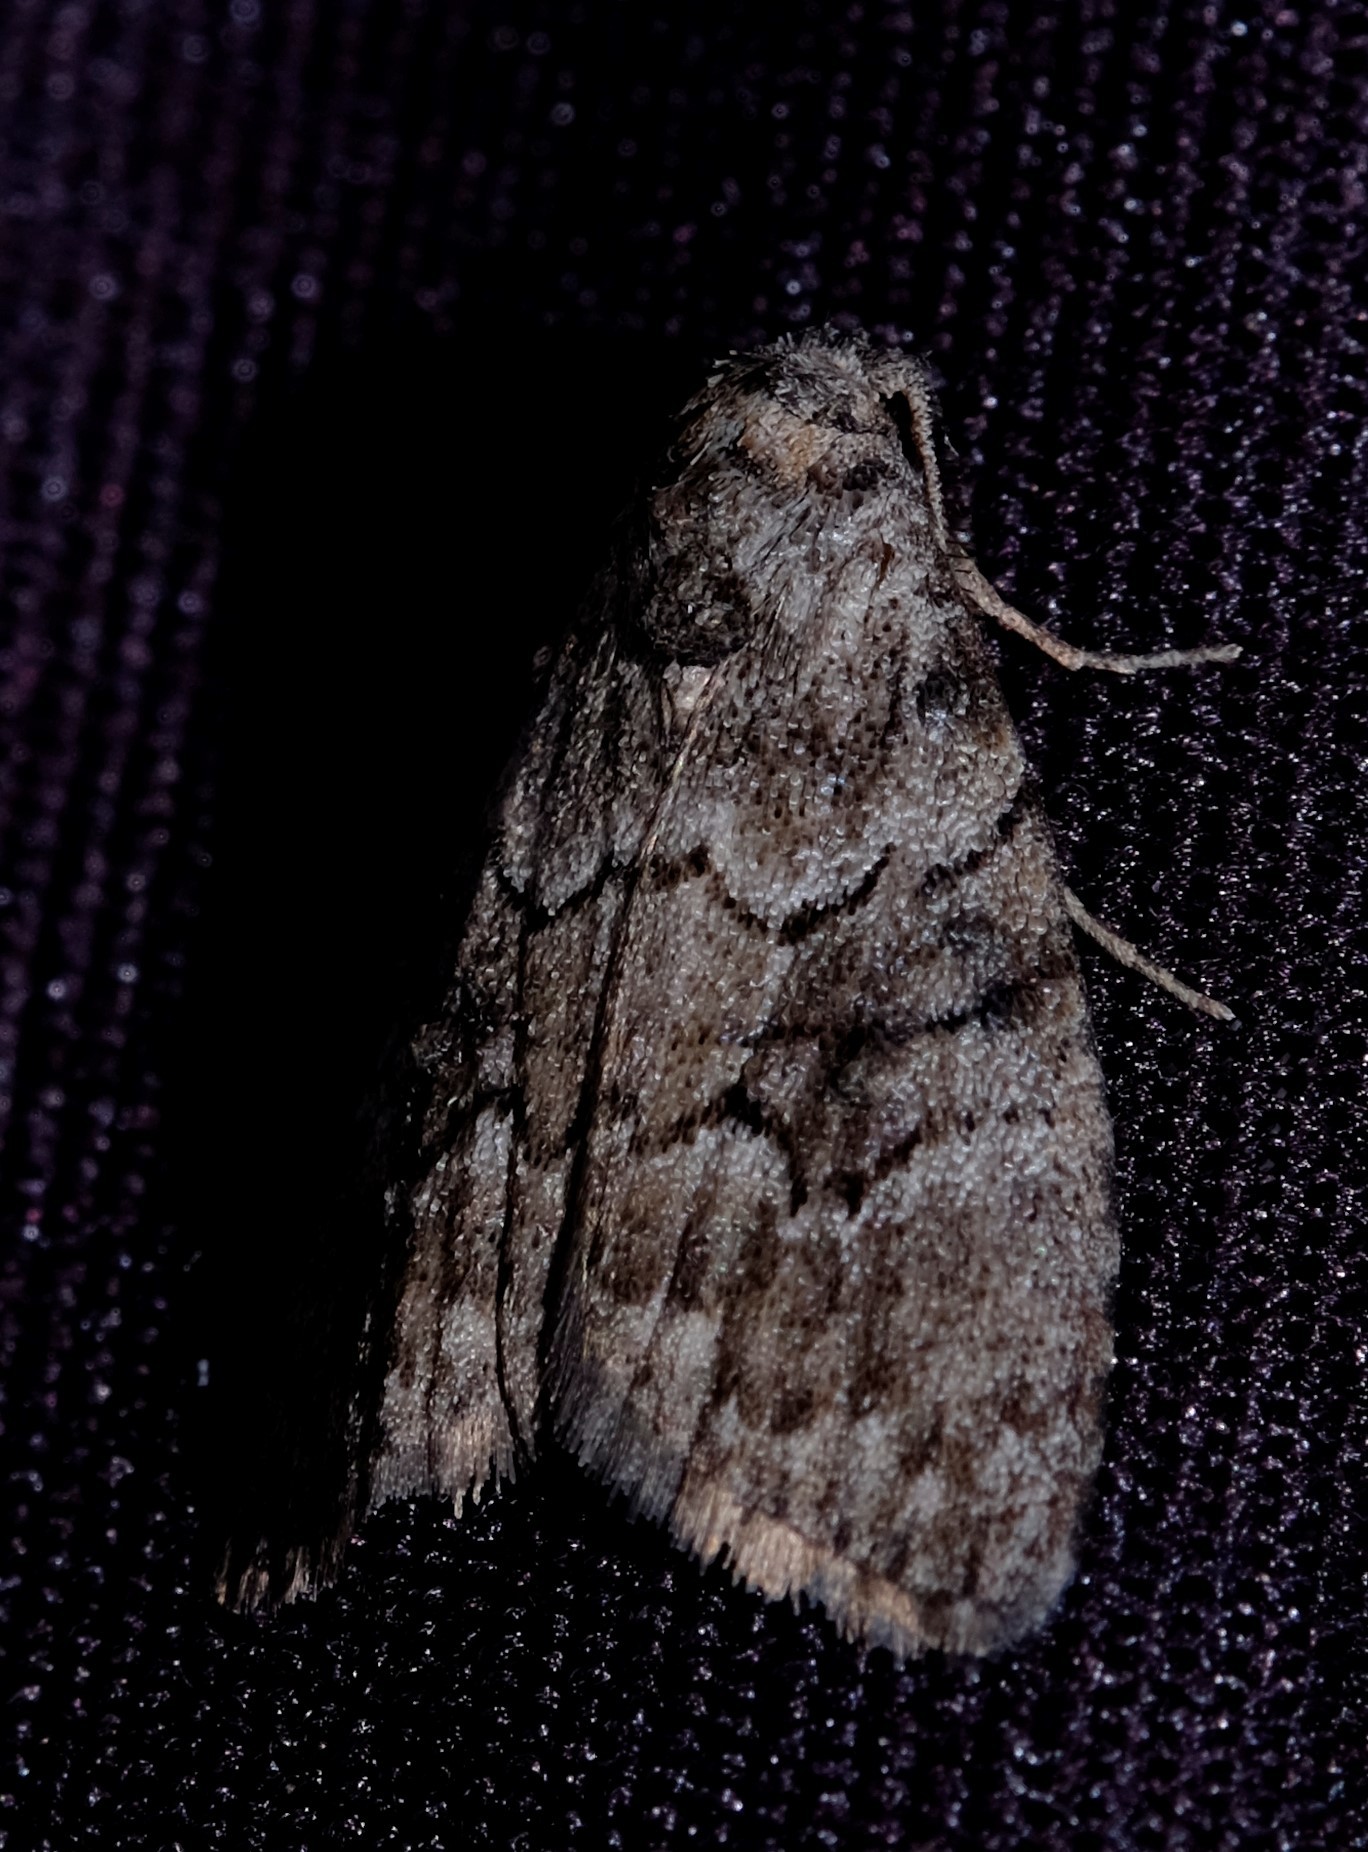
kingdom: Animalia
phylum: Arthropoda
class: Insecta
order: Lepidoptera
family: Nolidae
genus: Uraba
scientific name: Uraba lugens
